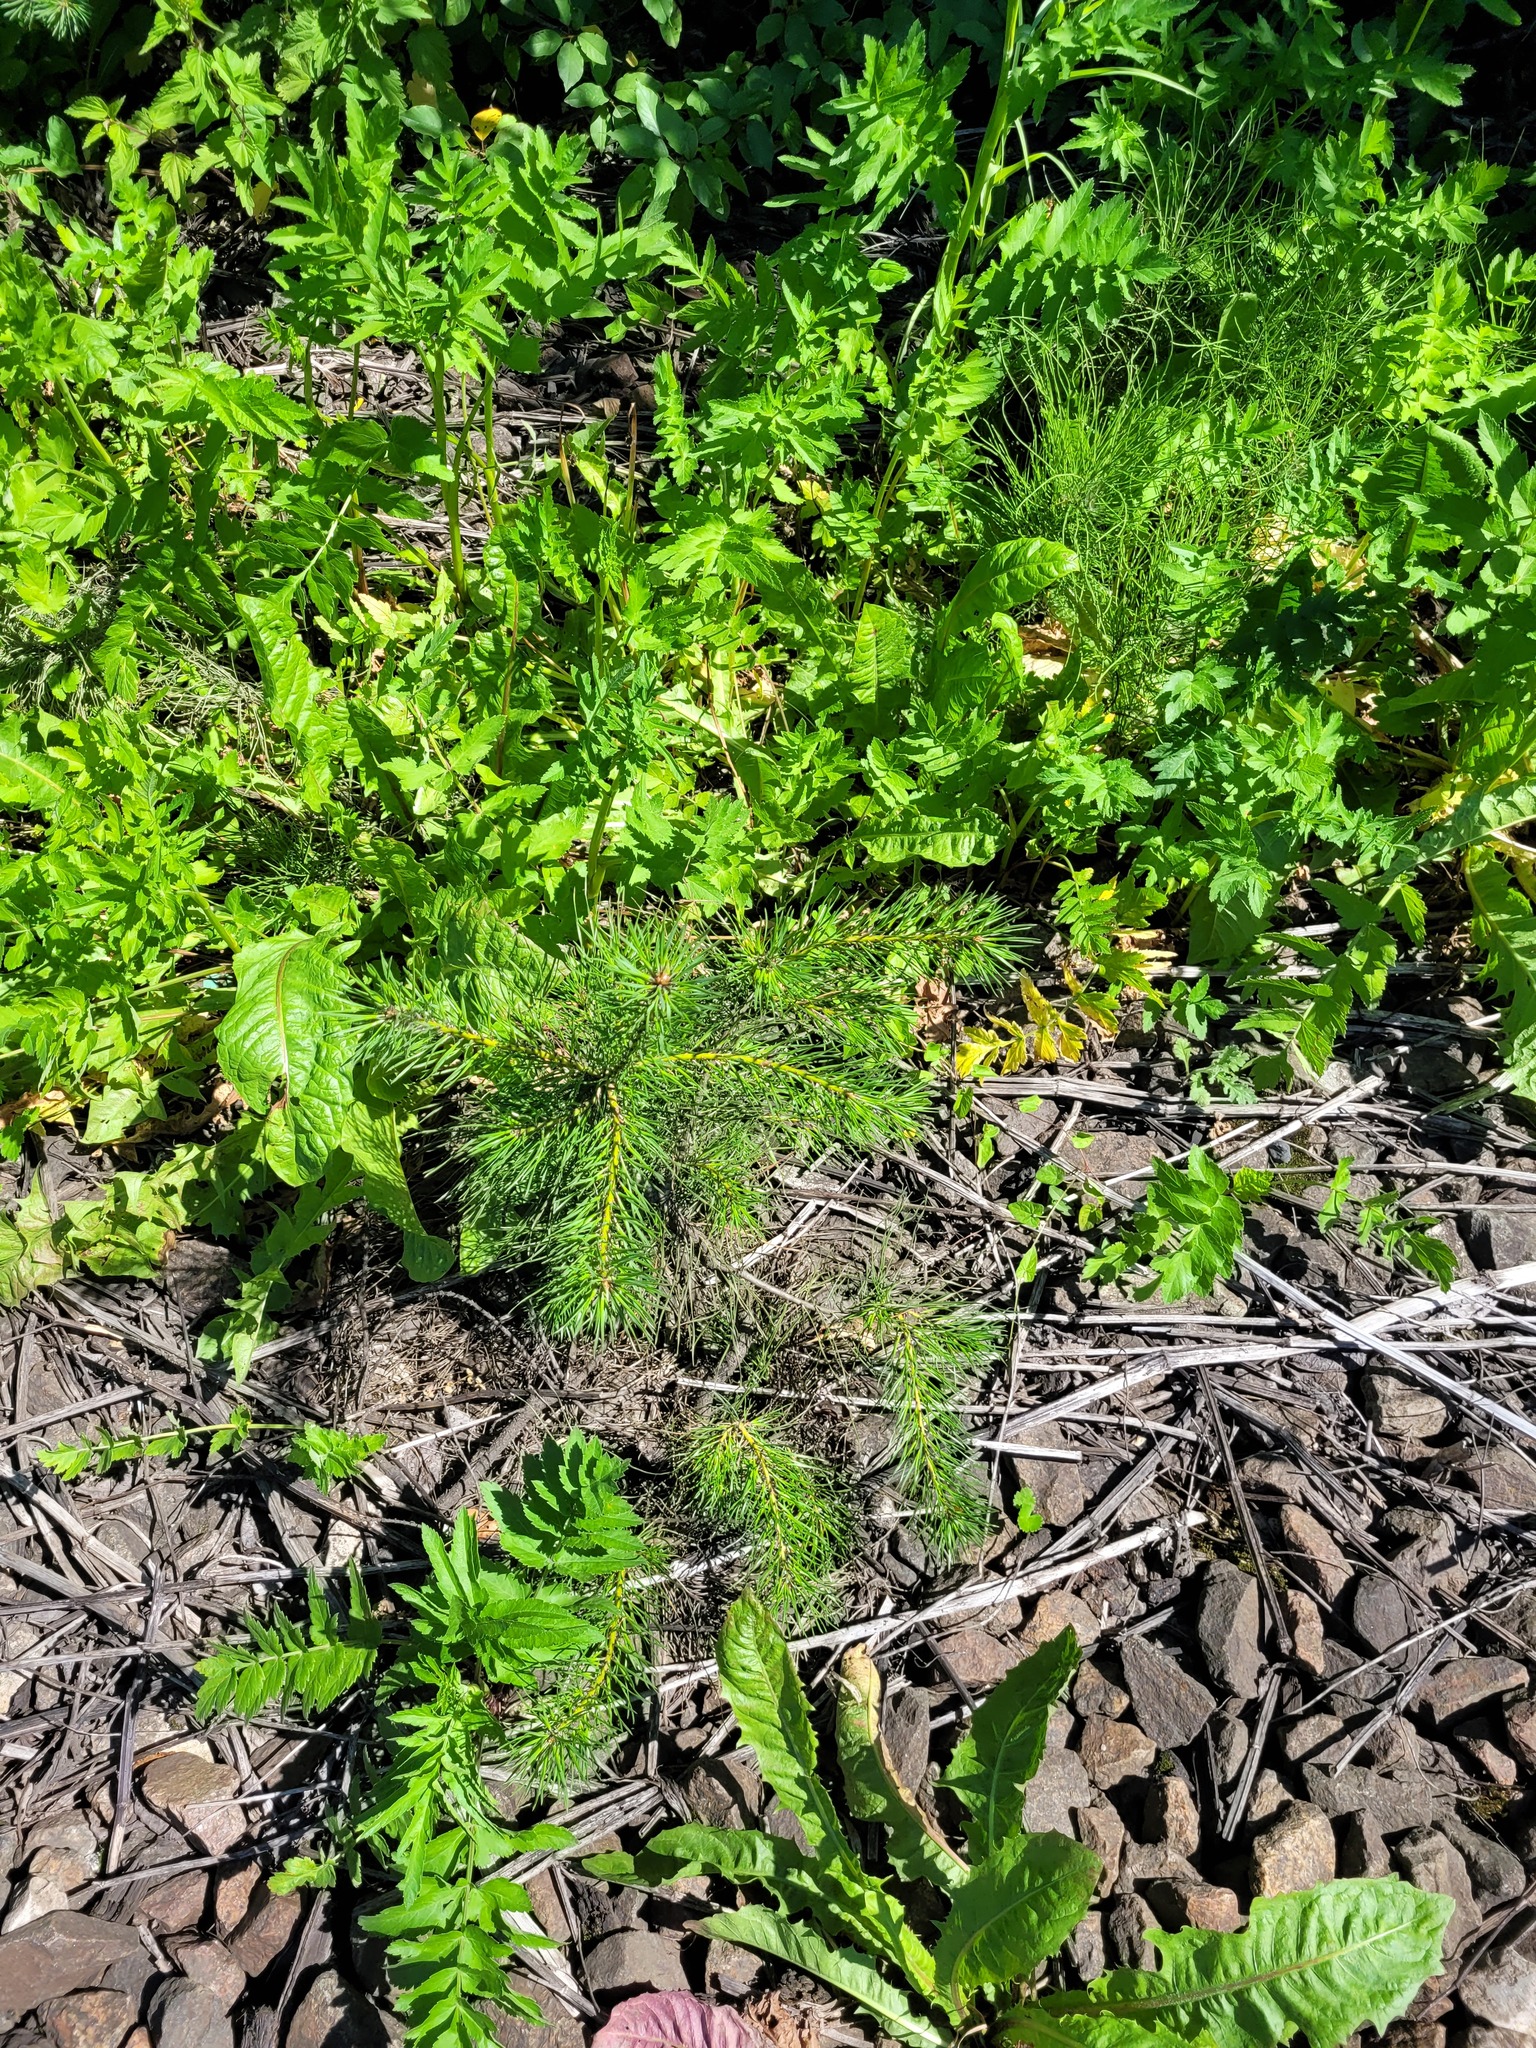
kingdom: Plantae
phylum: Tracheophyta
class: Pinopsida
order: Pinales
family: Pinaceae
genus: Pinus
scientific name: Pinus sylvestris
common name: Scots pine
